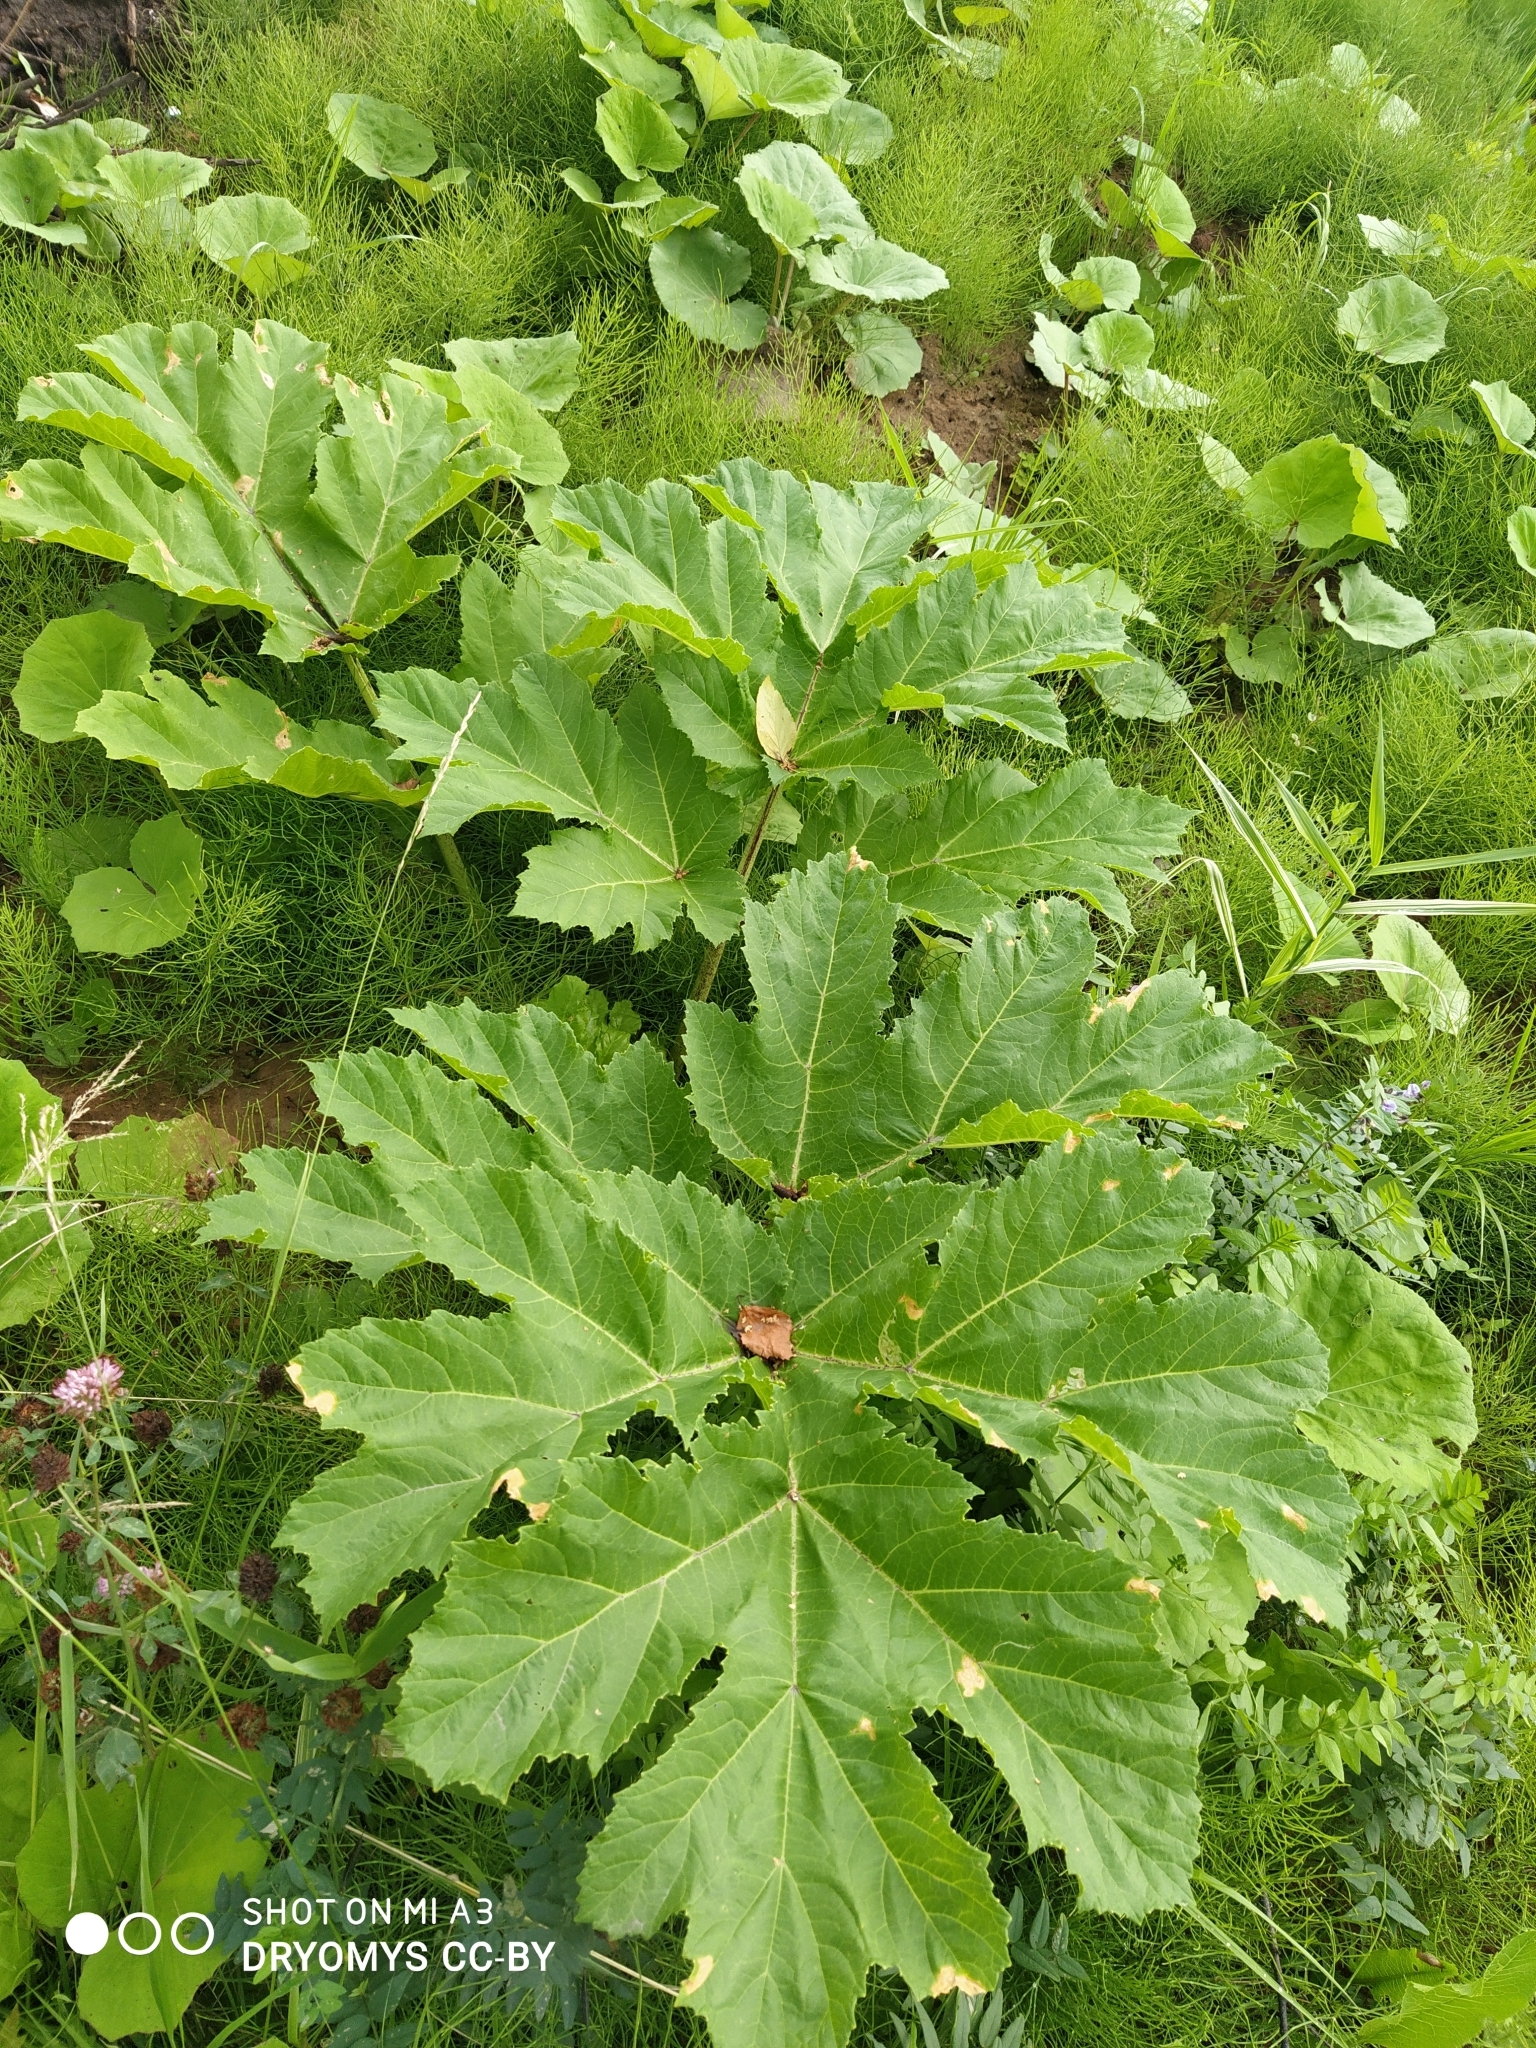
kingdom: Plantae
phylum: Tracheophyta
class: Magnoliopsida
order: Apiales
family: Apiaceae
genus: Heracleum
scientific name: Heracleum sosnowskyi
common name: Sosnowsky's hogweed
